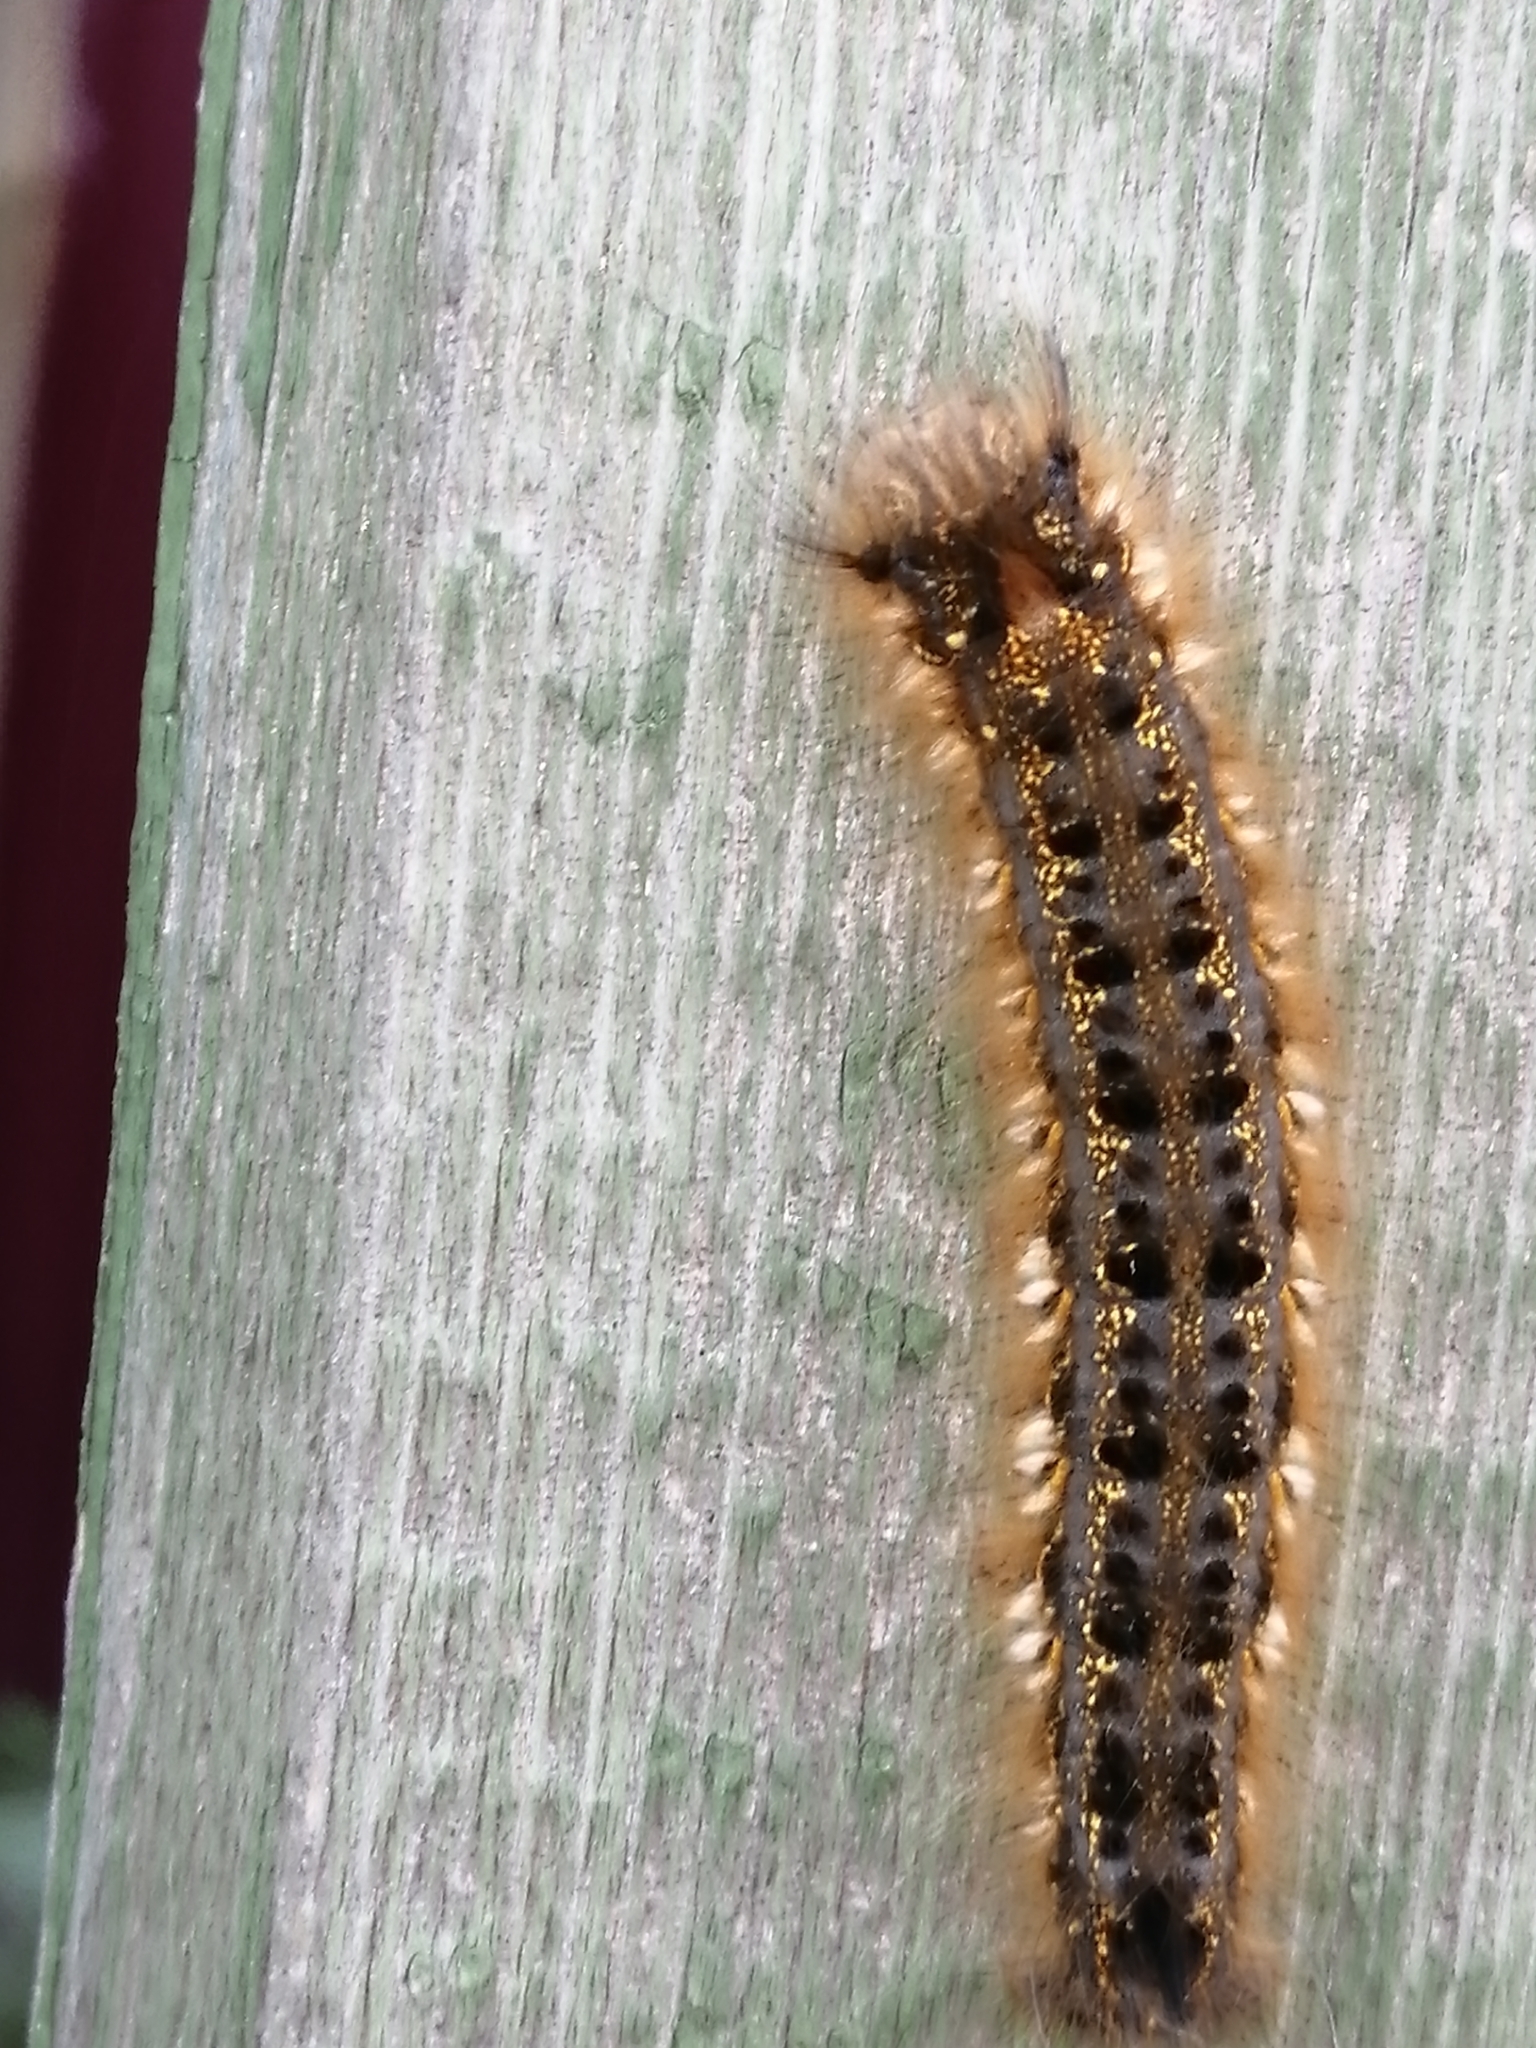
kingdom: Animalia
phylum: Arthropoda
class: Insecta
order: Lepidoptera
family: Lasiocampidae
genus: Euthrix
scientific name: Euthrix potatoria
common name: Drinker
